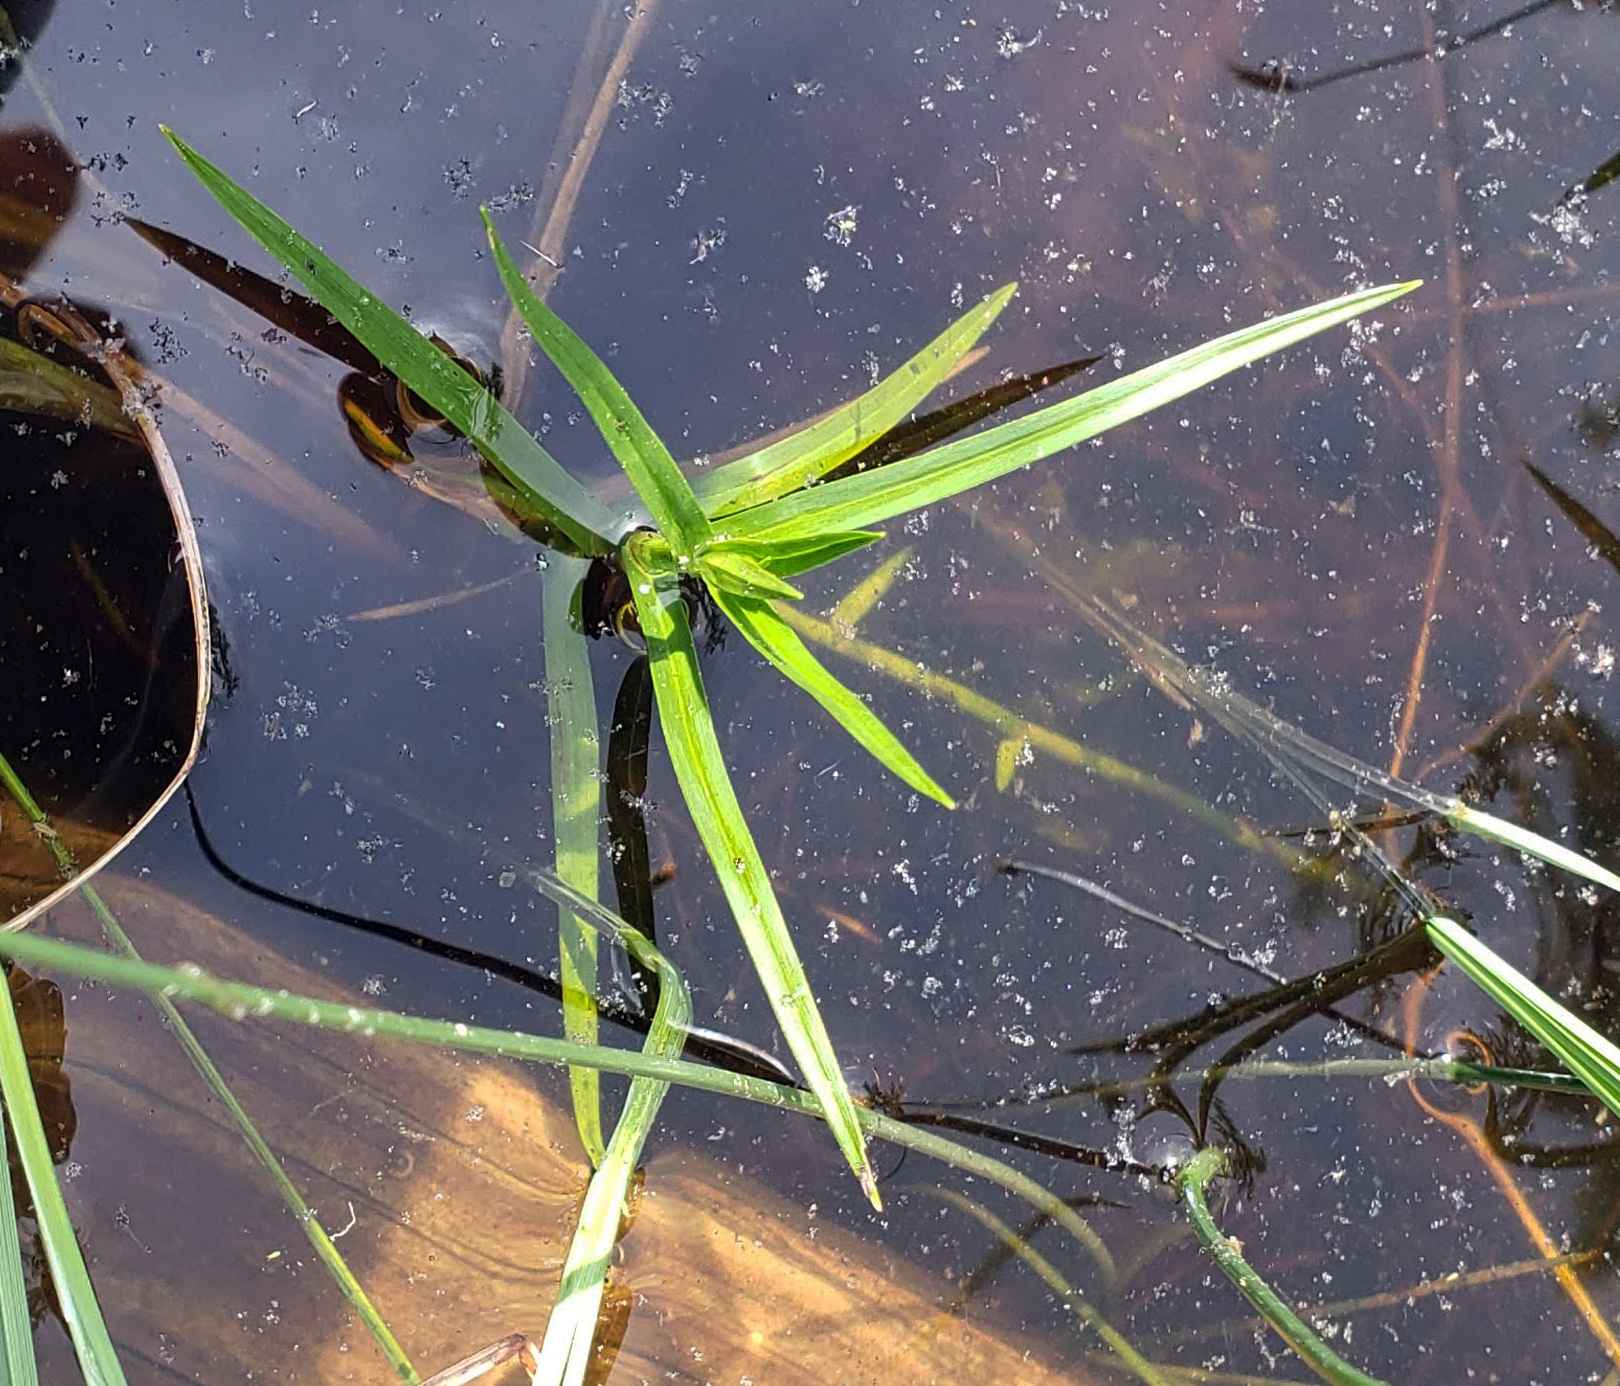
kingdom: Plantae
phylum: Tracheophyta
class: Liliopsida
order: Poales
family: Cyperaceae
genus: Dulichium
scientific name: Dulichium arundinaceum
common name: Three-way sedge
